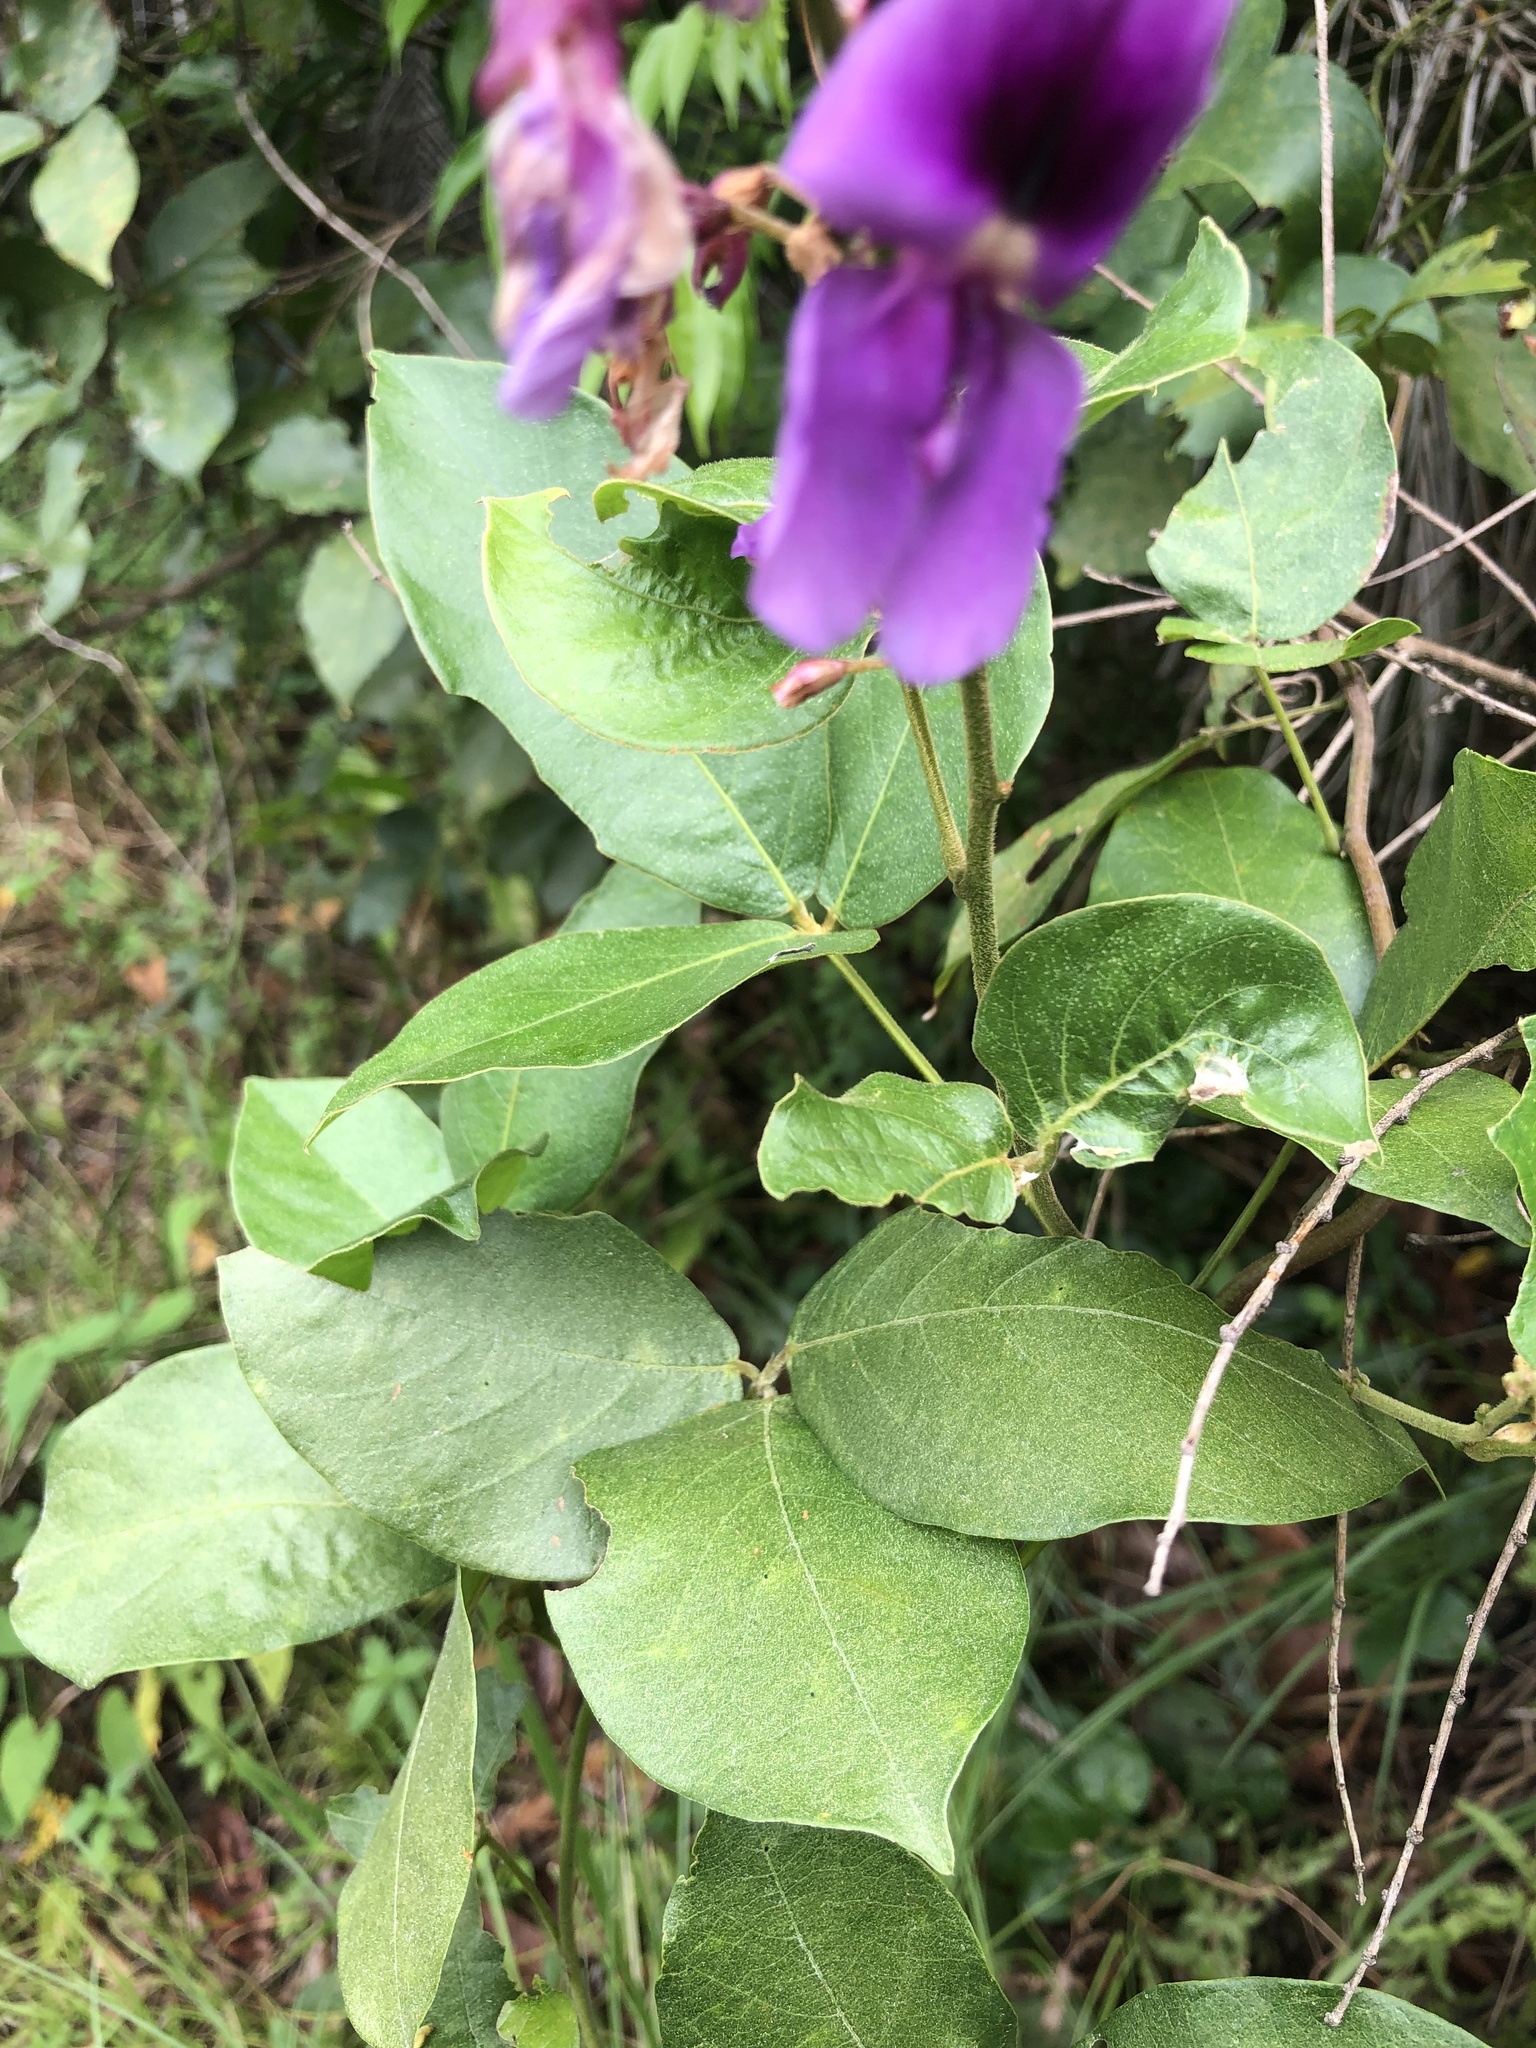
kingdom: Plantae
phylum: Tracheophyta
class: Magnoliopsida
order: Fabales
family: Fabaceae
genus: Dioclea
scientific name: Dioclea virgata
